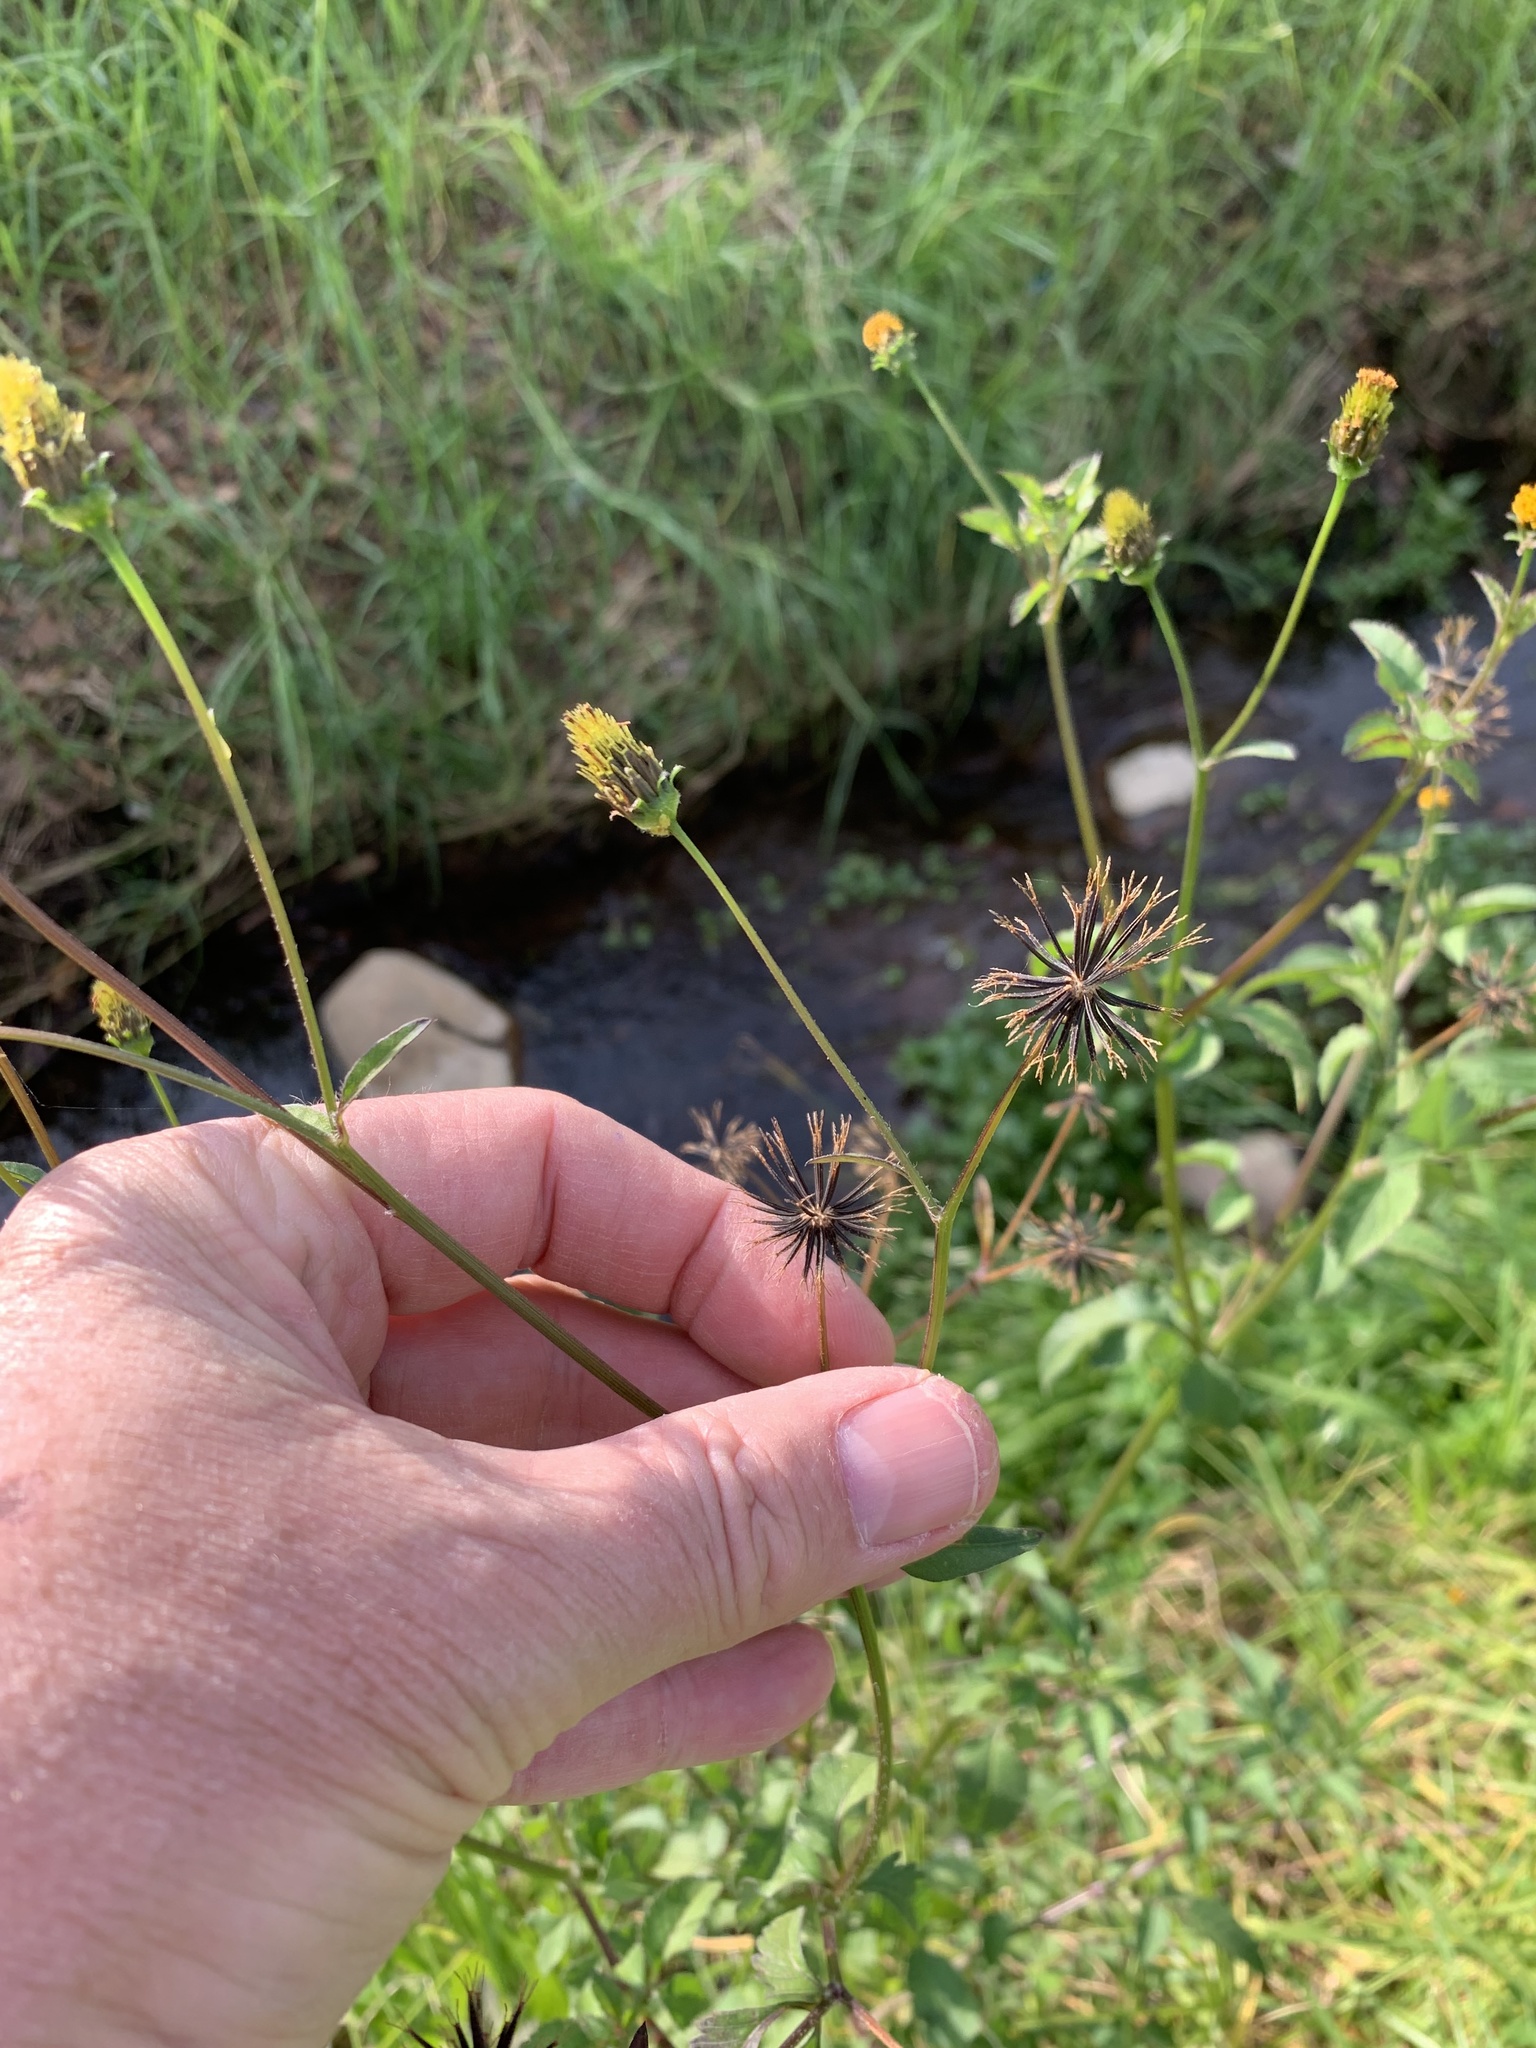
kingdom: Plantae
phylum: Tracheophyta
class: Magnoliopsida
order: Asterales
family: Asteraceae
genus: Bidens
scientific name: Bidens pilosa
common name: Black-jack
